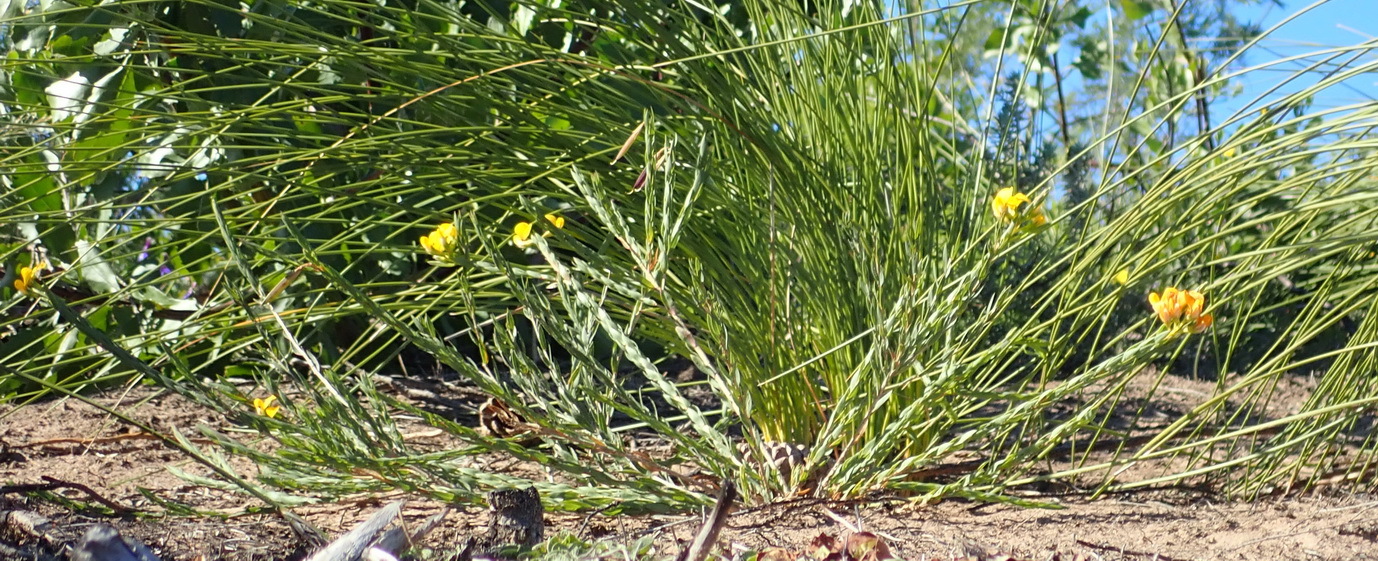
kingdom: Plantae
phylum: Tracheophyta
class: Magnoliopsida
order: Fabales
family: Fabaceae
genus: Aspalathus
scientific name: Aspalathus angustifolia
